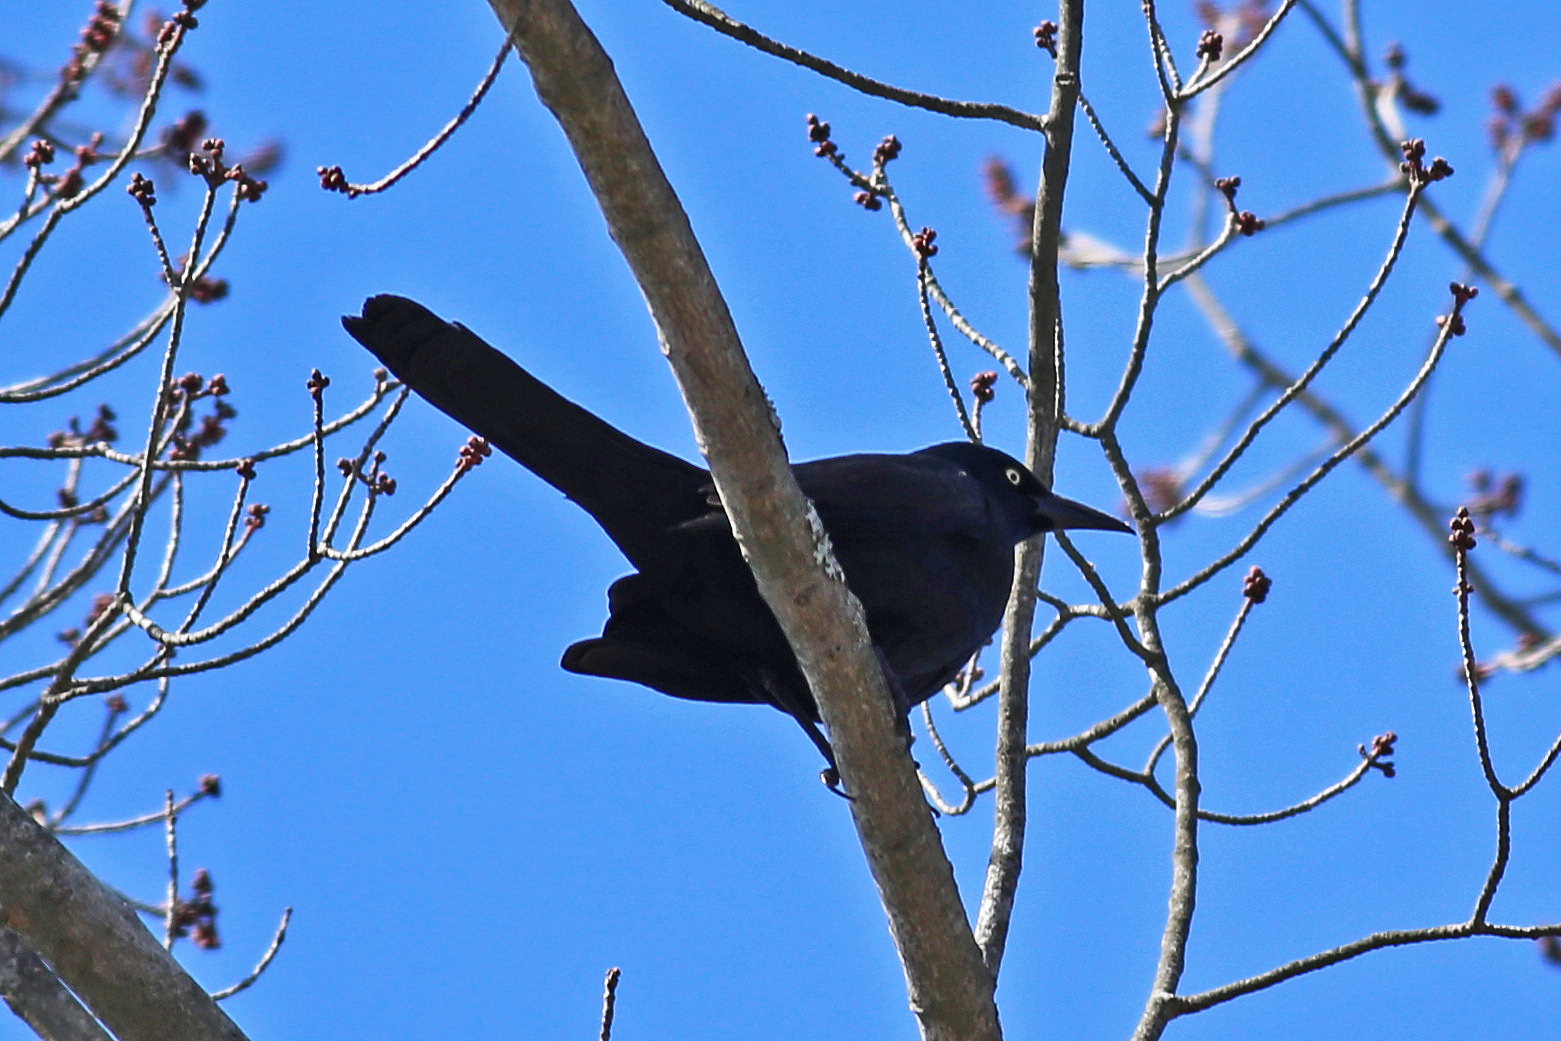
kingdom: Animalia
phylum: Chordata
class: Aves
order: Passeriformes
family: Icteridae
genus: Quiscalus
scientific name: Quiscalus quiscula
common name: Common grackle
